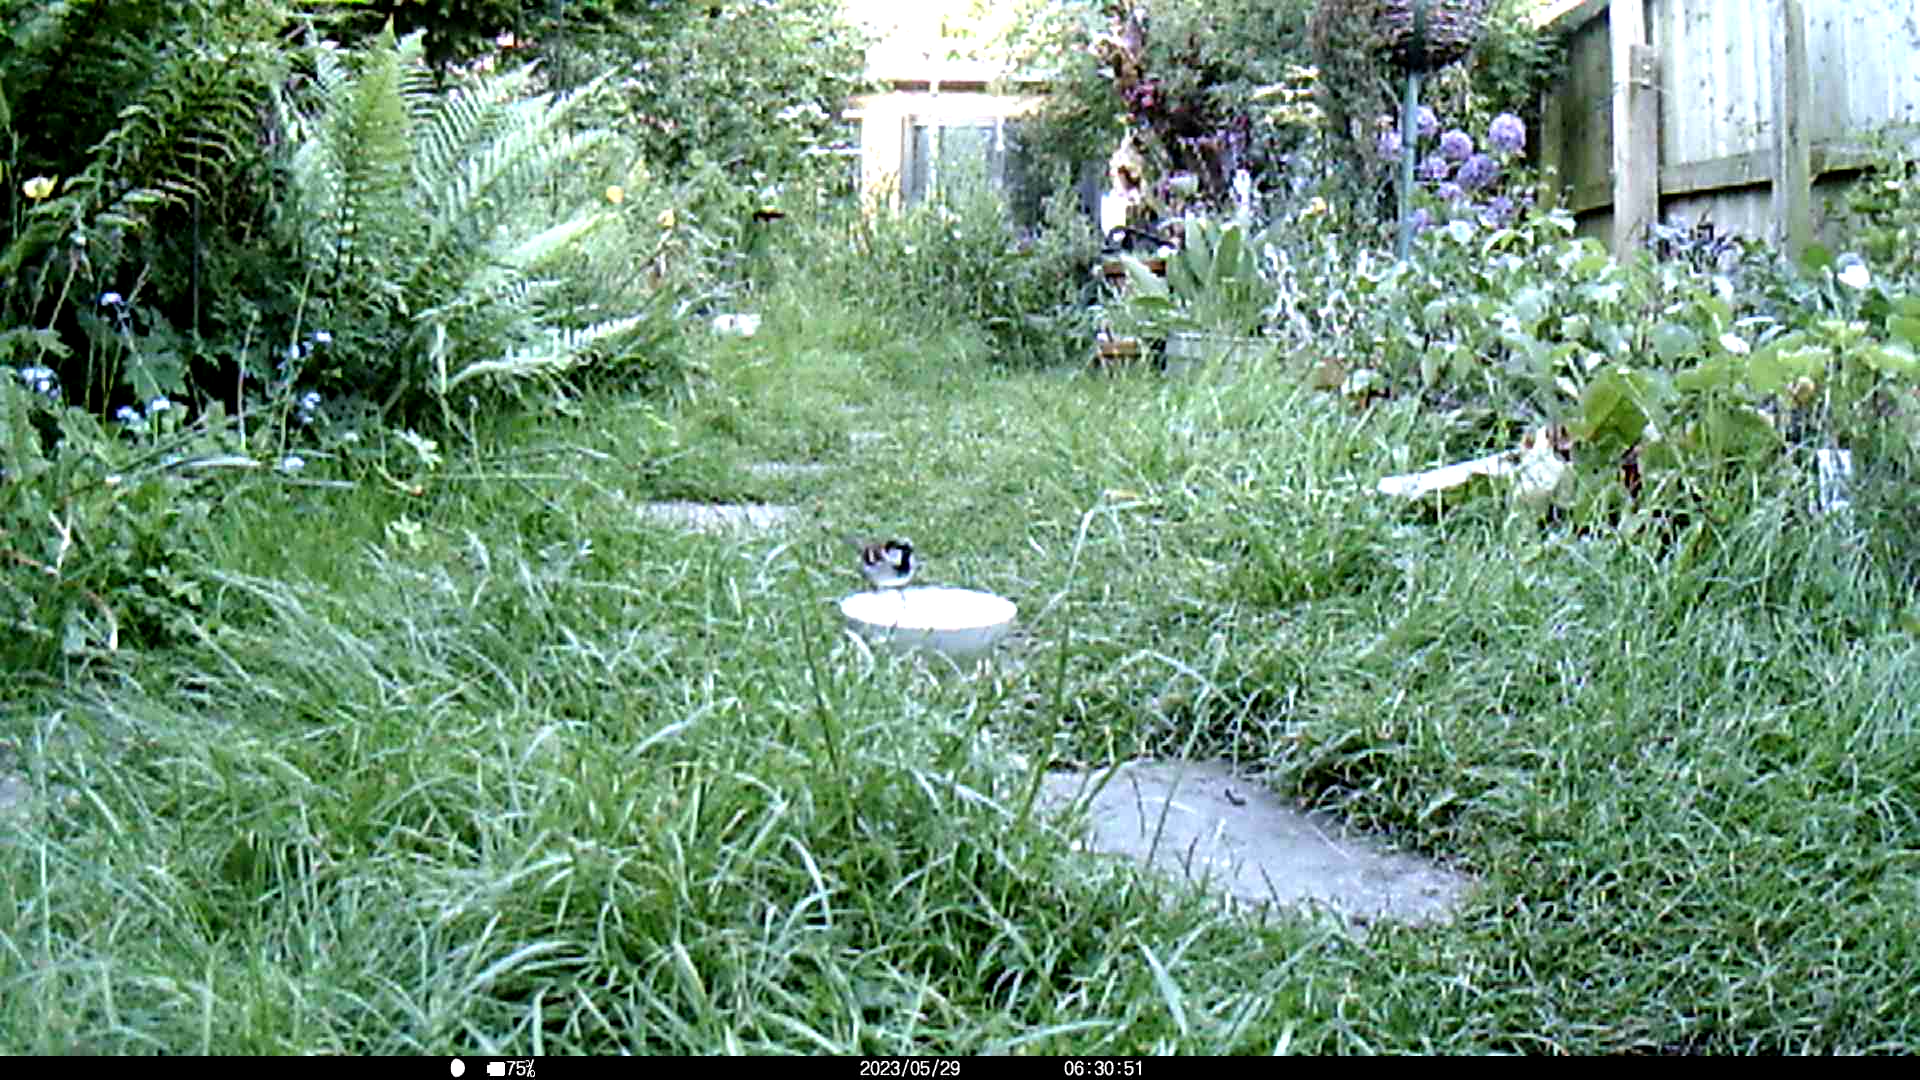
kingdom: Animalia
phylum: Chordata
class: Aves
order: Passeriformes
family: Passeridae
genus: Passer
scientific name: Passer domesticus
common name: House sparrow
